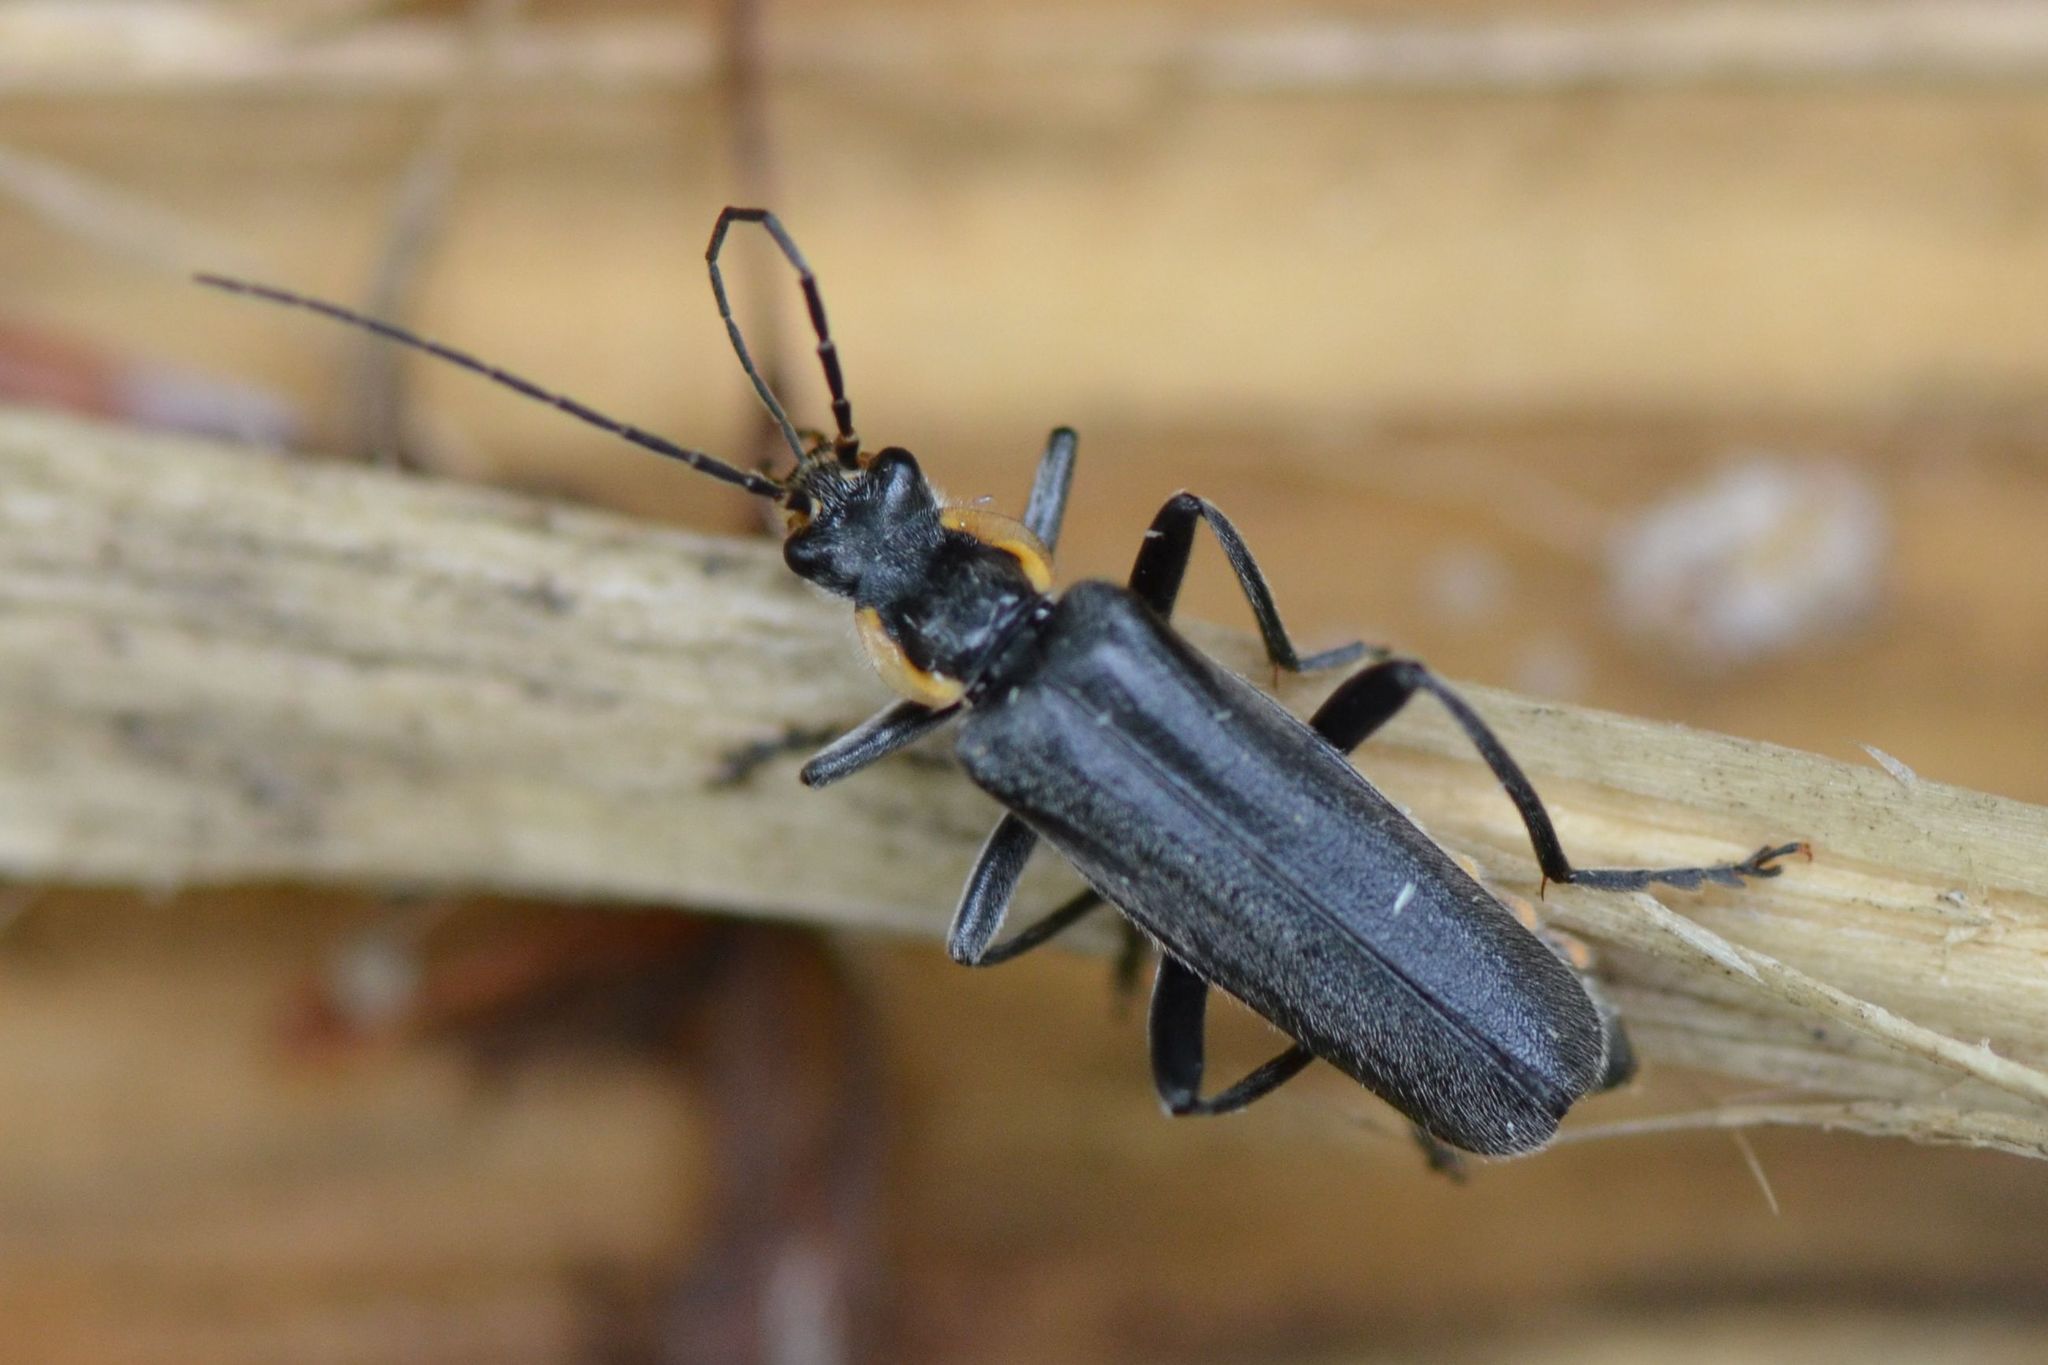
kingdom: Animalia
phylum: Arthropoda
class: Insecta
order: Coleoptera
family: Cantharidae
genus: Cantharis
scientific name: Cantharis obscura
